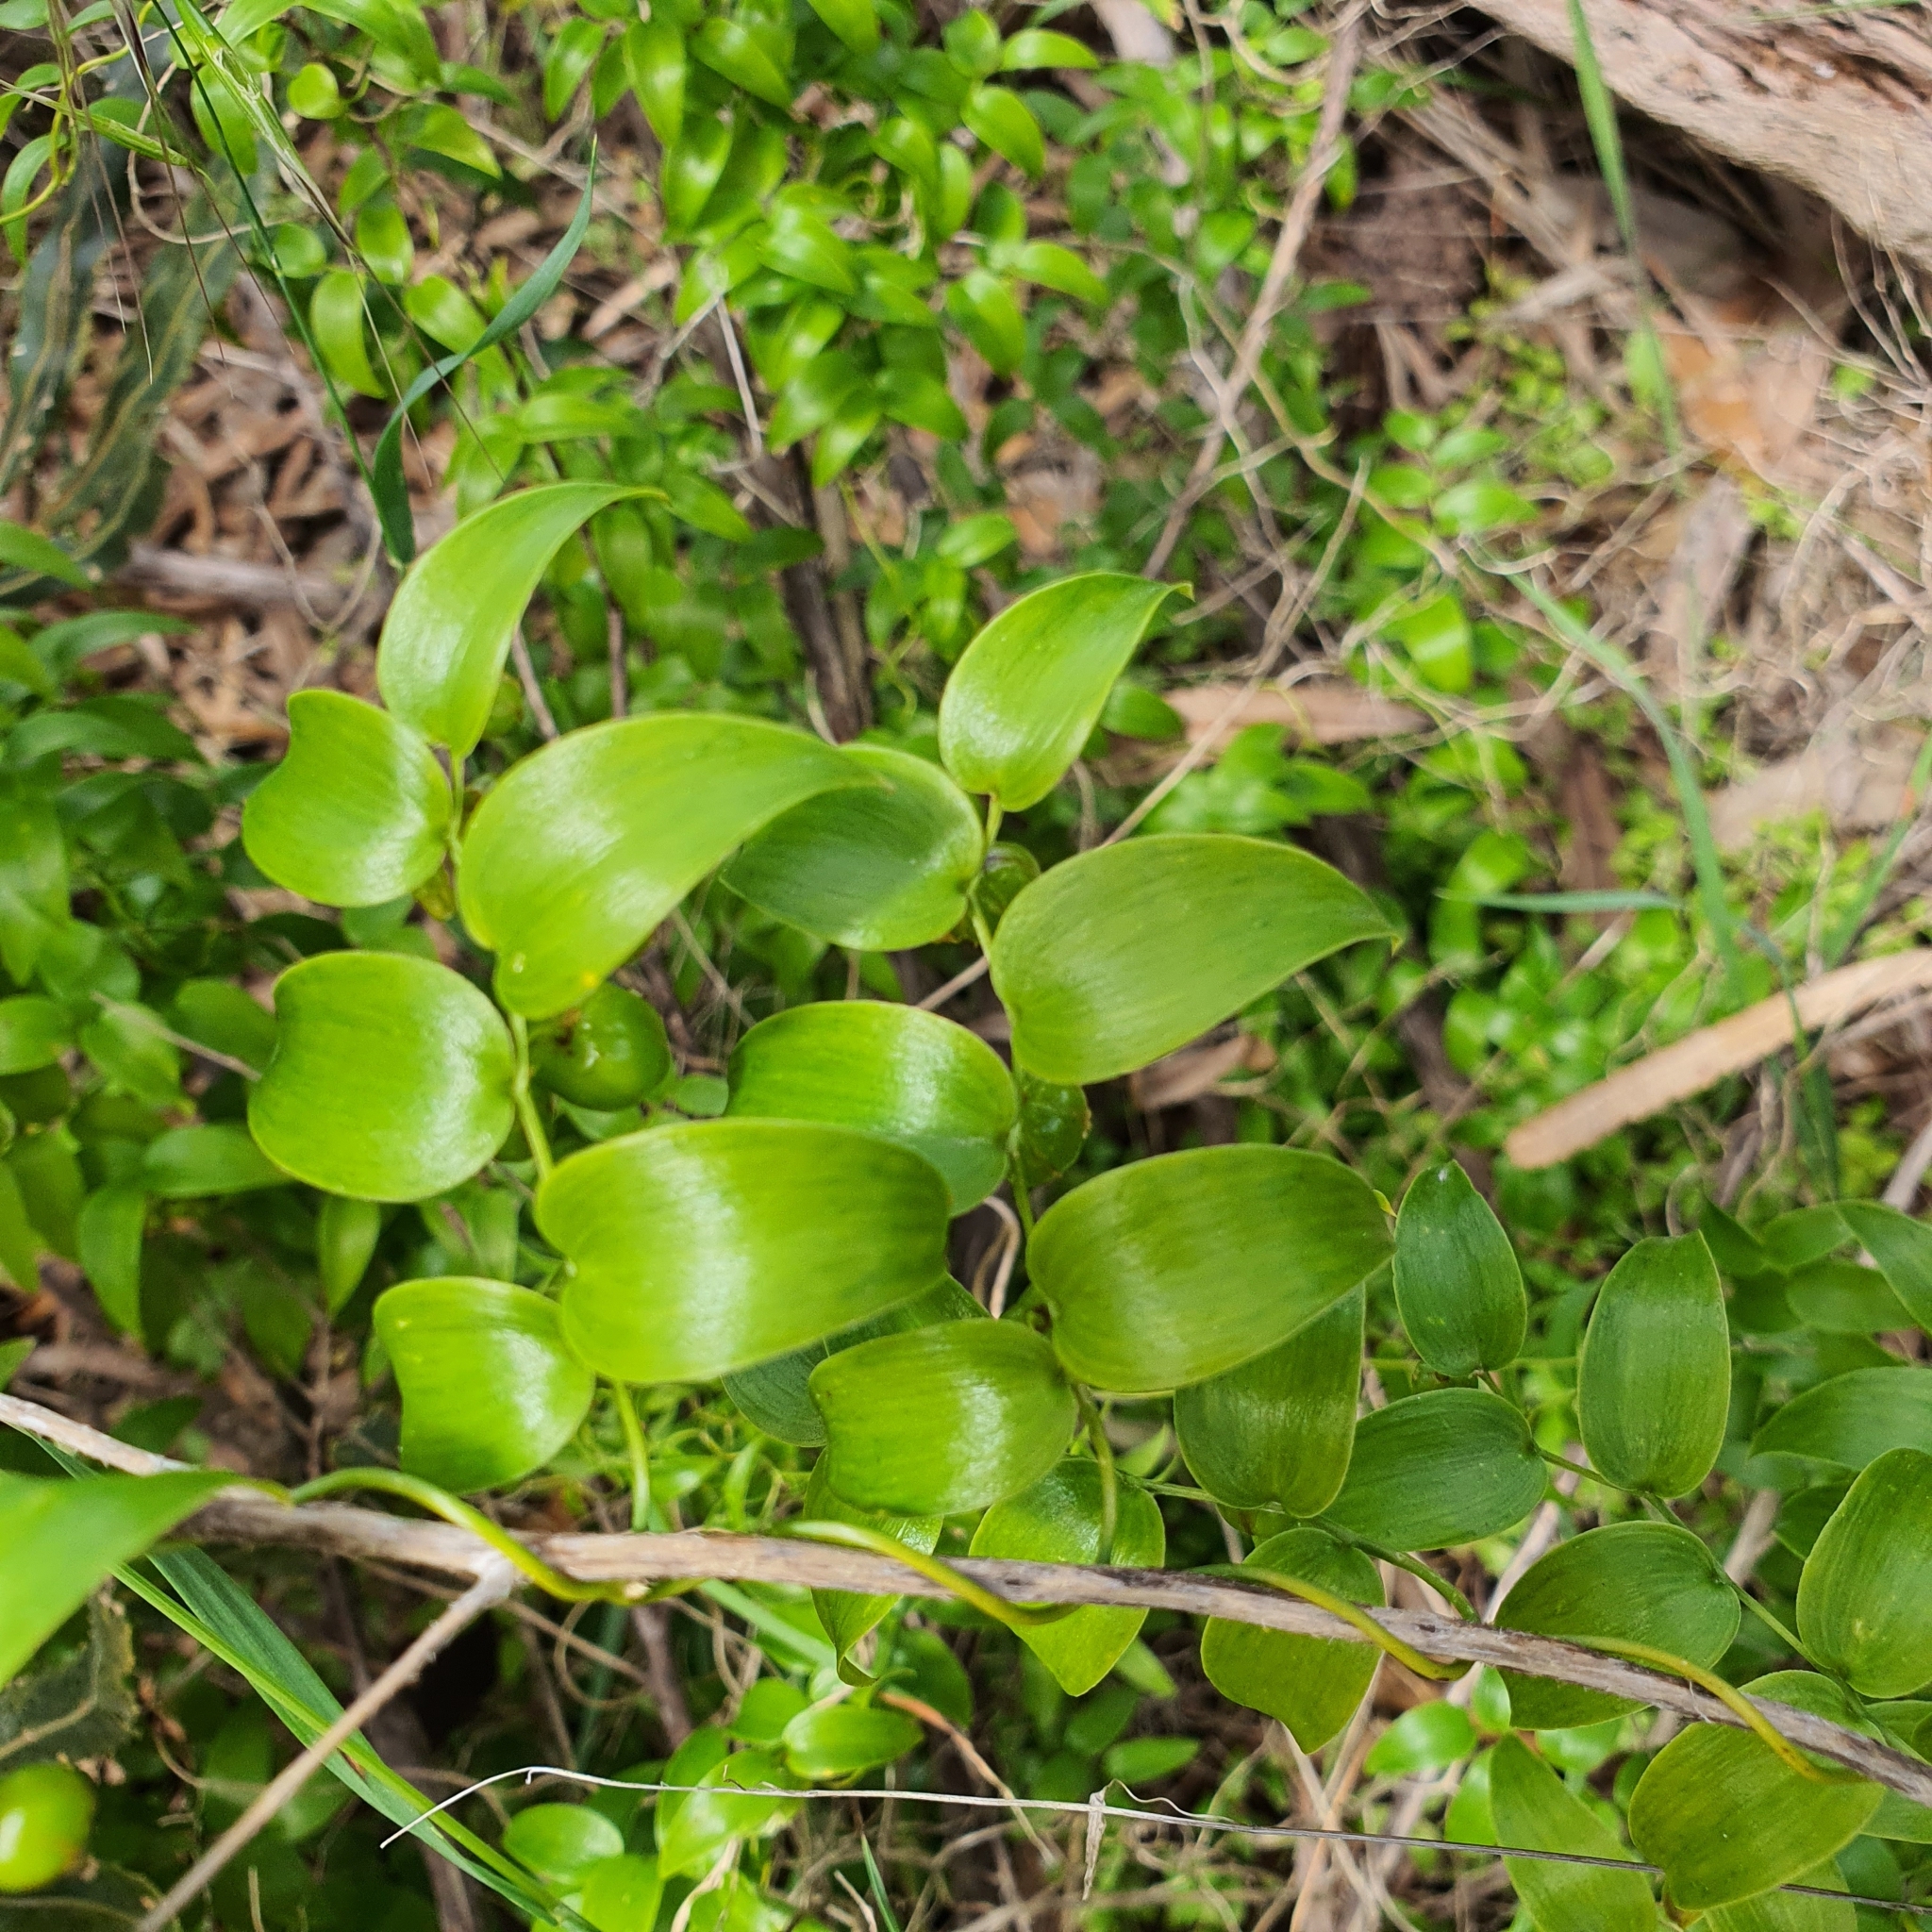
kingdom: Plantae
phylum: Tracheophyta
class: Liliopsida
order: Asparagales
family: Asparagaceae
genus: Asparagus
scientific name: Asparagus asparagoides
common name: African asparagus fern
